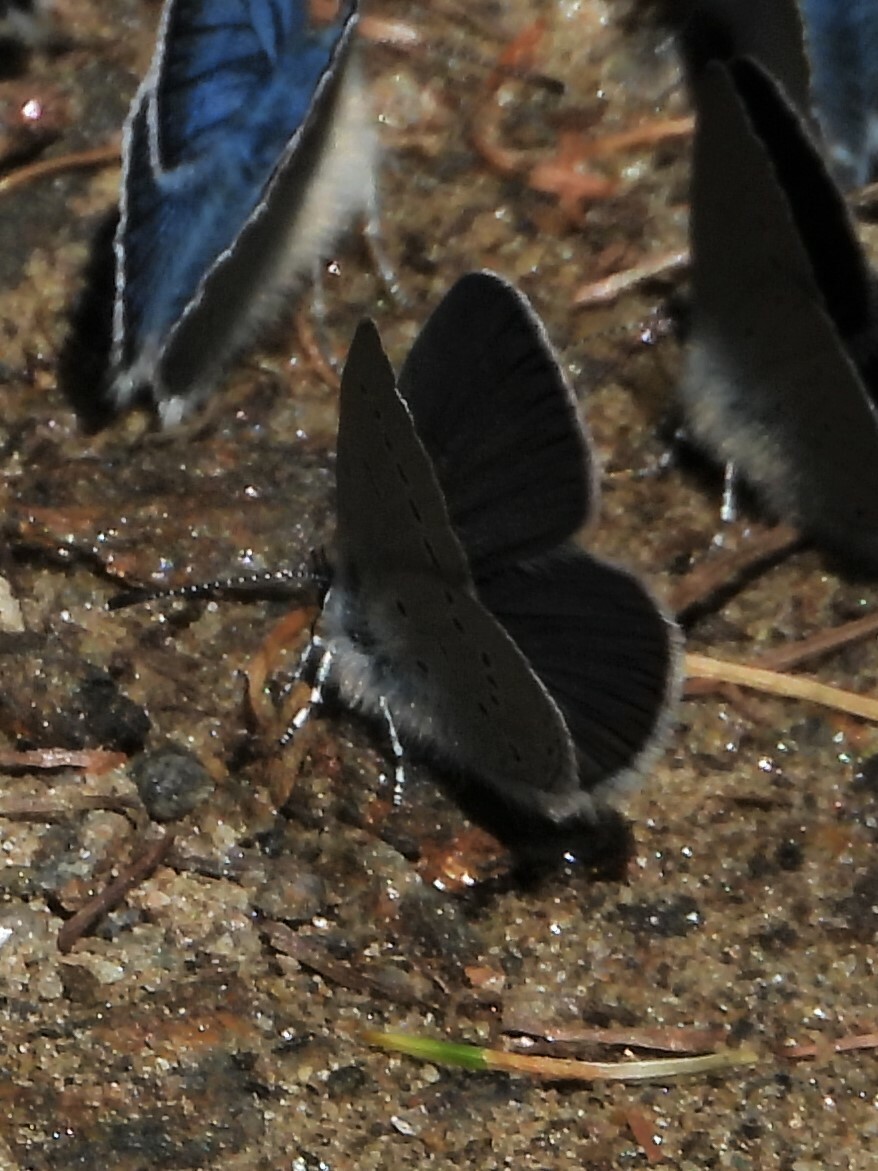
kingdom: Animalia
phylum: Arthropoda
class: Insecta
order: Lepidoptera
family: Lycaenidae
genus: Cupido
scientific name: Cupido minimus
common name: Small blue
